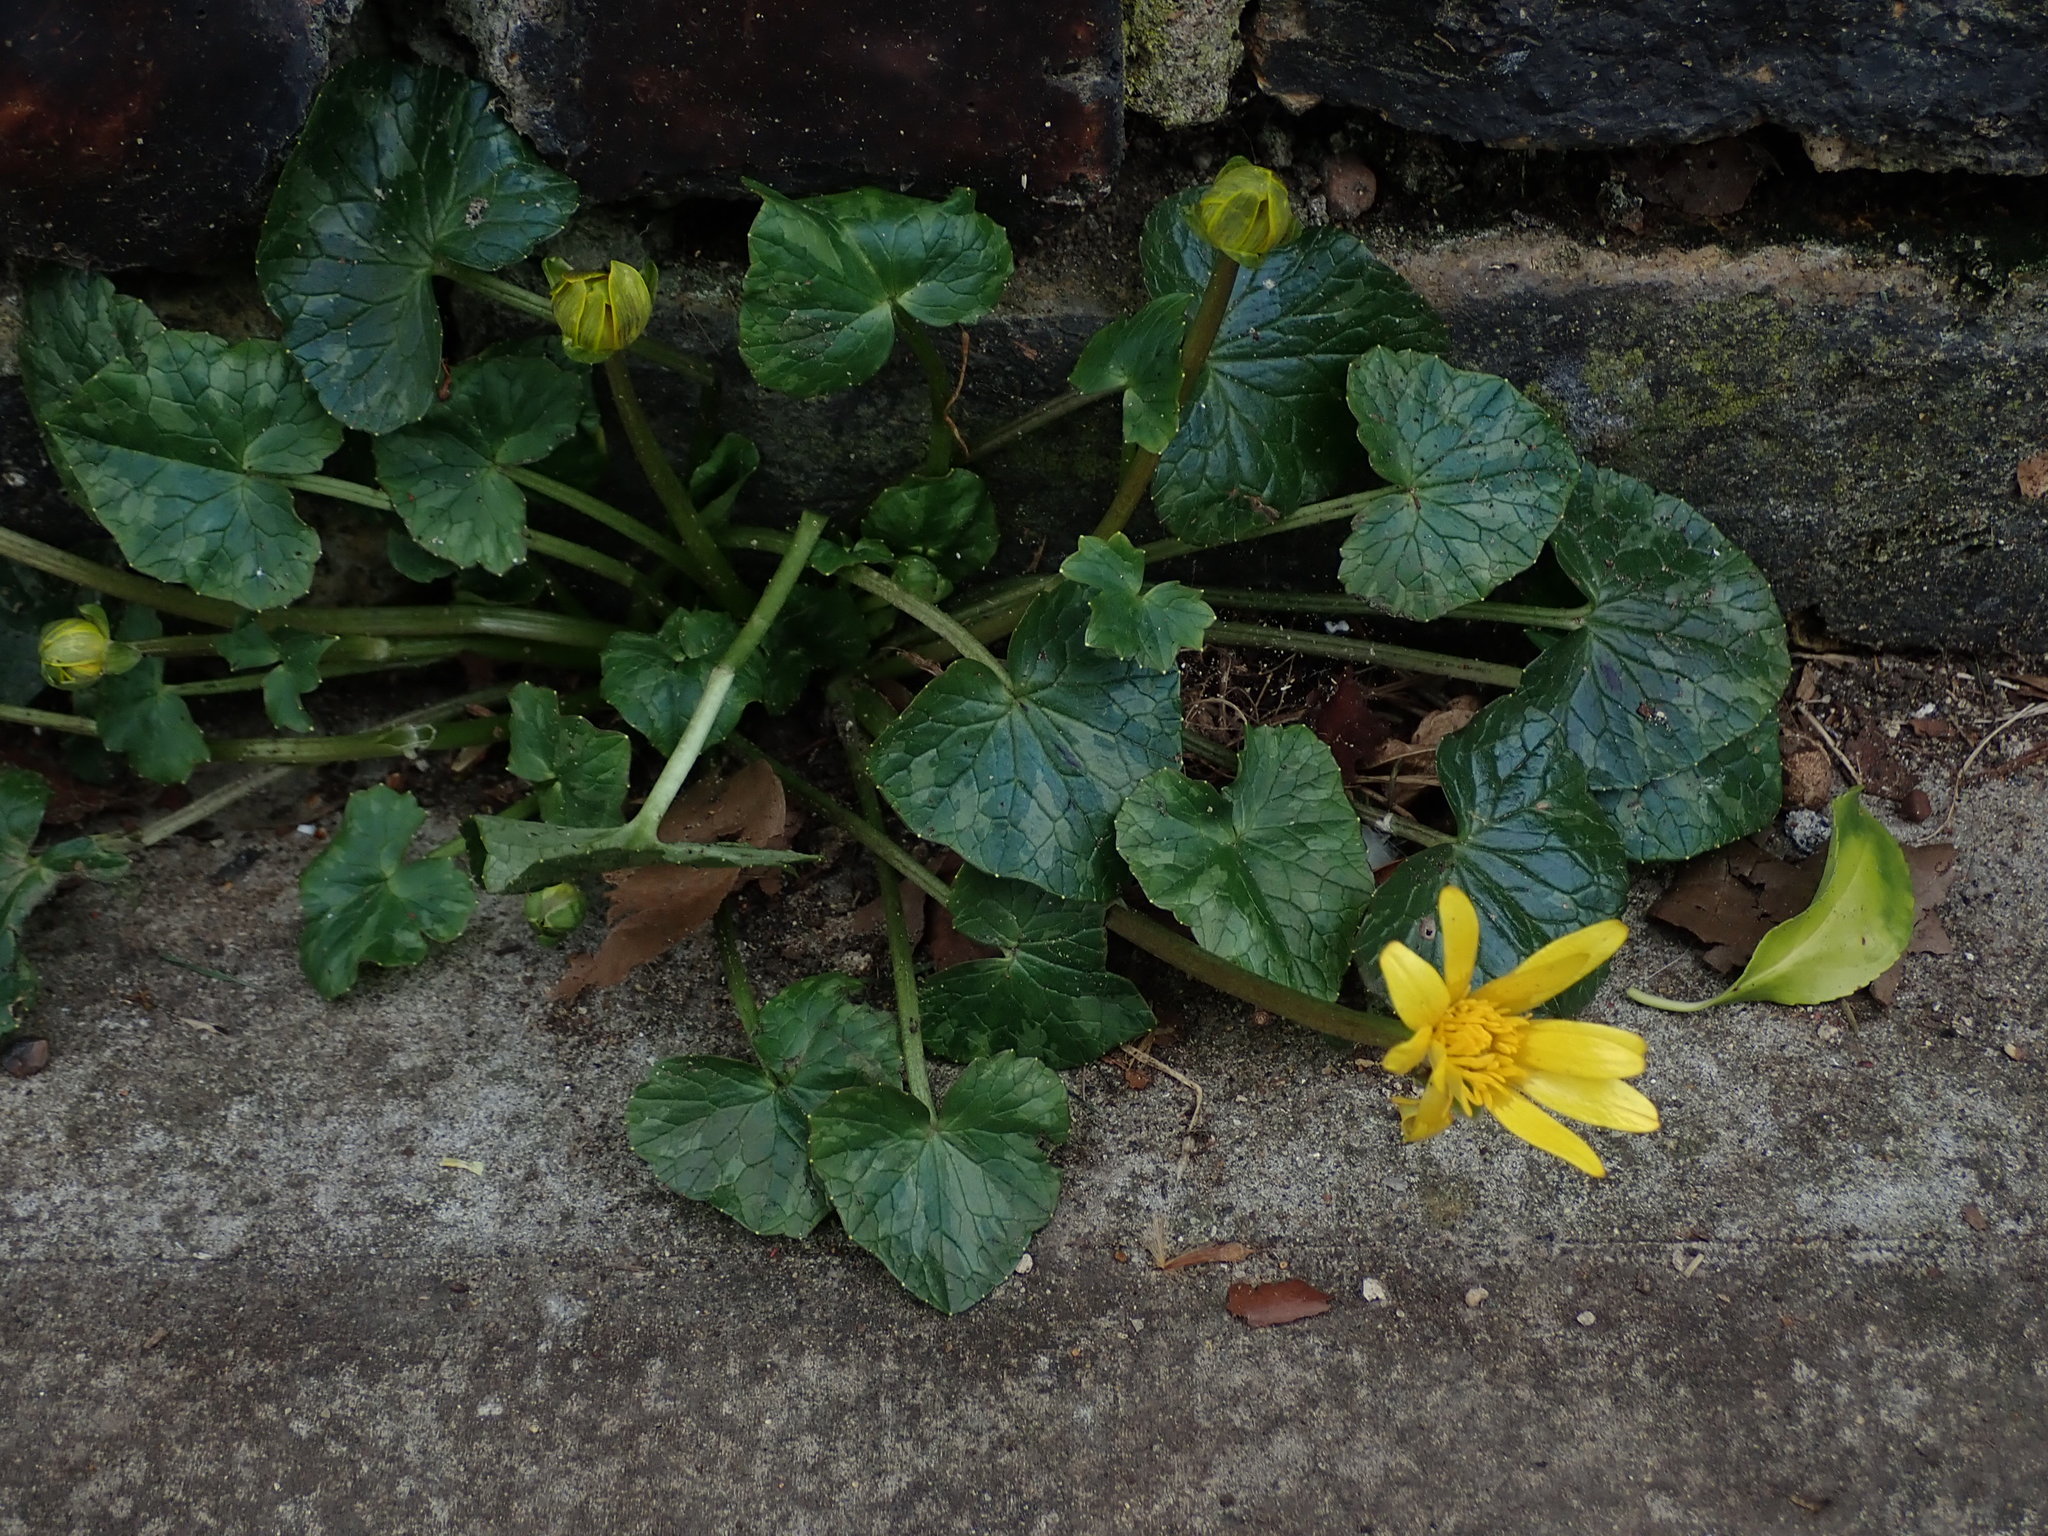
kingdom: Plantae
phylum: Tracheophyta
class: Magnoliopsida
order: Ranunculales
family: Ranunculaceae
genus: Ficaria
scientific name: Ficaria verna
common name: Lesser celandine
